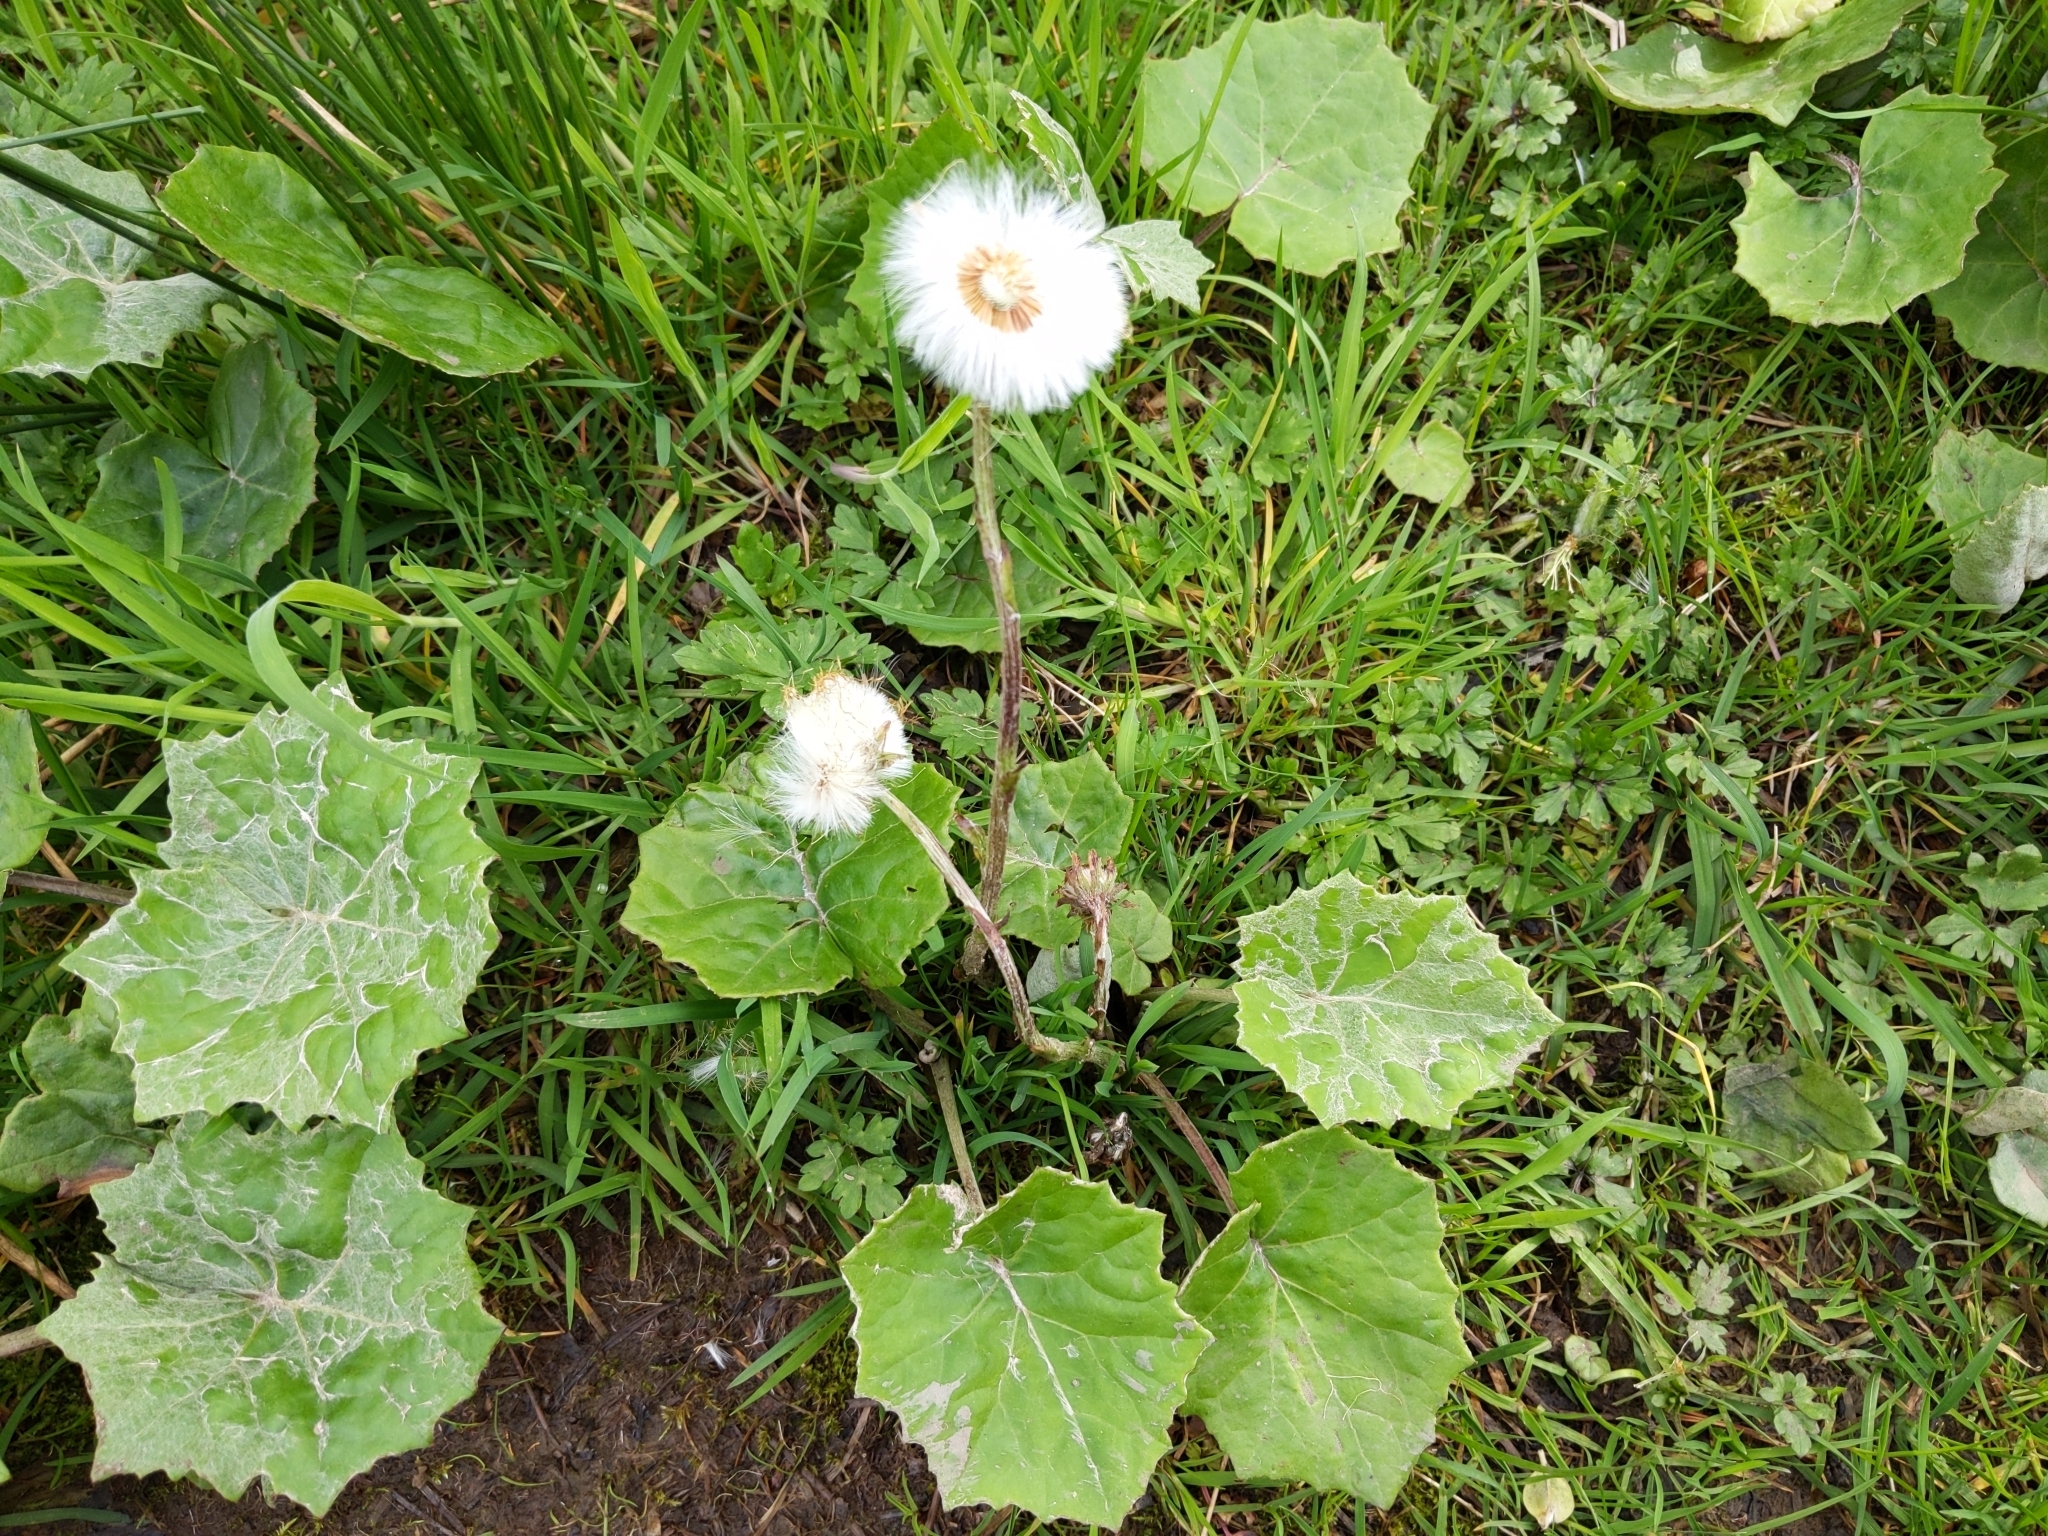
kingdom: Plantae
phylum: Tracheophyta
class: Magnoliopsida
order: Asterales
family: Asteraceae
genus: Tussilago
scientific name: Tussilago farfara
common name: Coltsfoot
